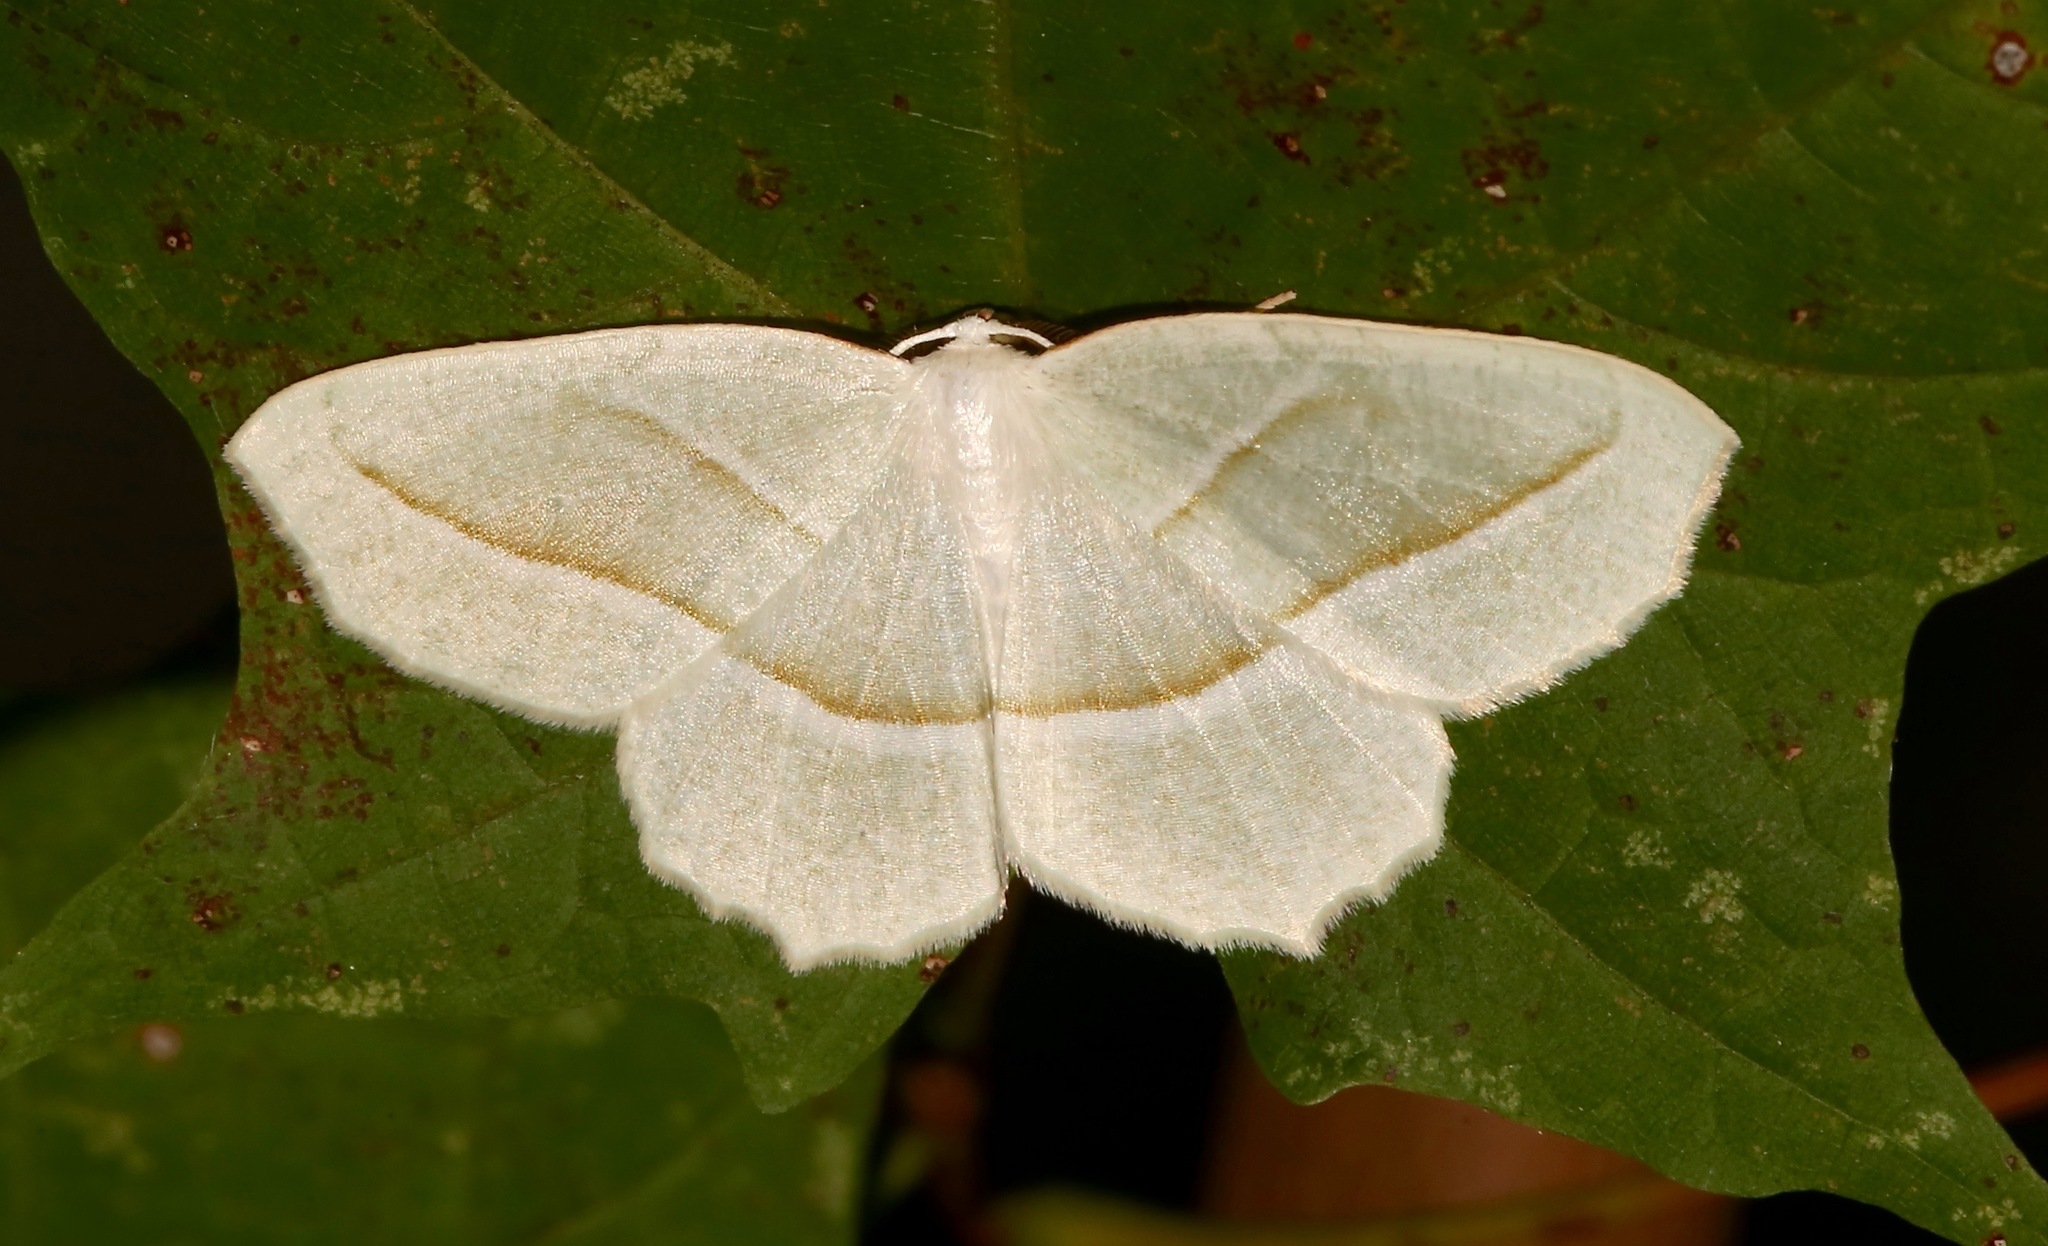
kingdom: Animalia
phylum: Arthropoda
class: Insecta
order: Lepidoptera
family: Geometridae
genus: Campaea
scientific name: Campaea perlata
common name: Fringed looper
